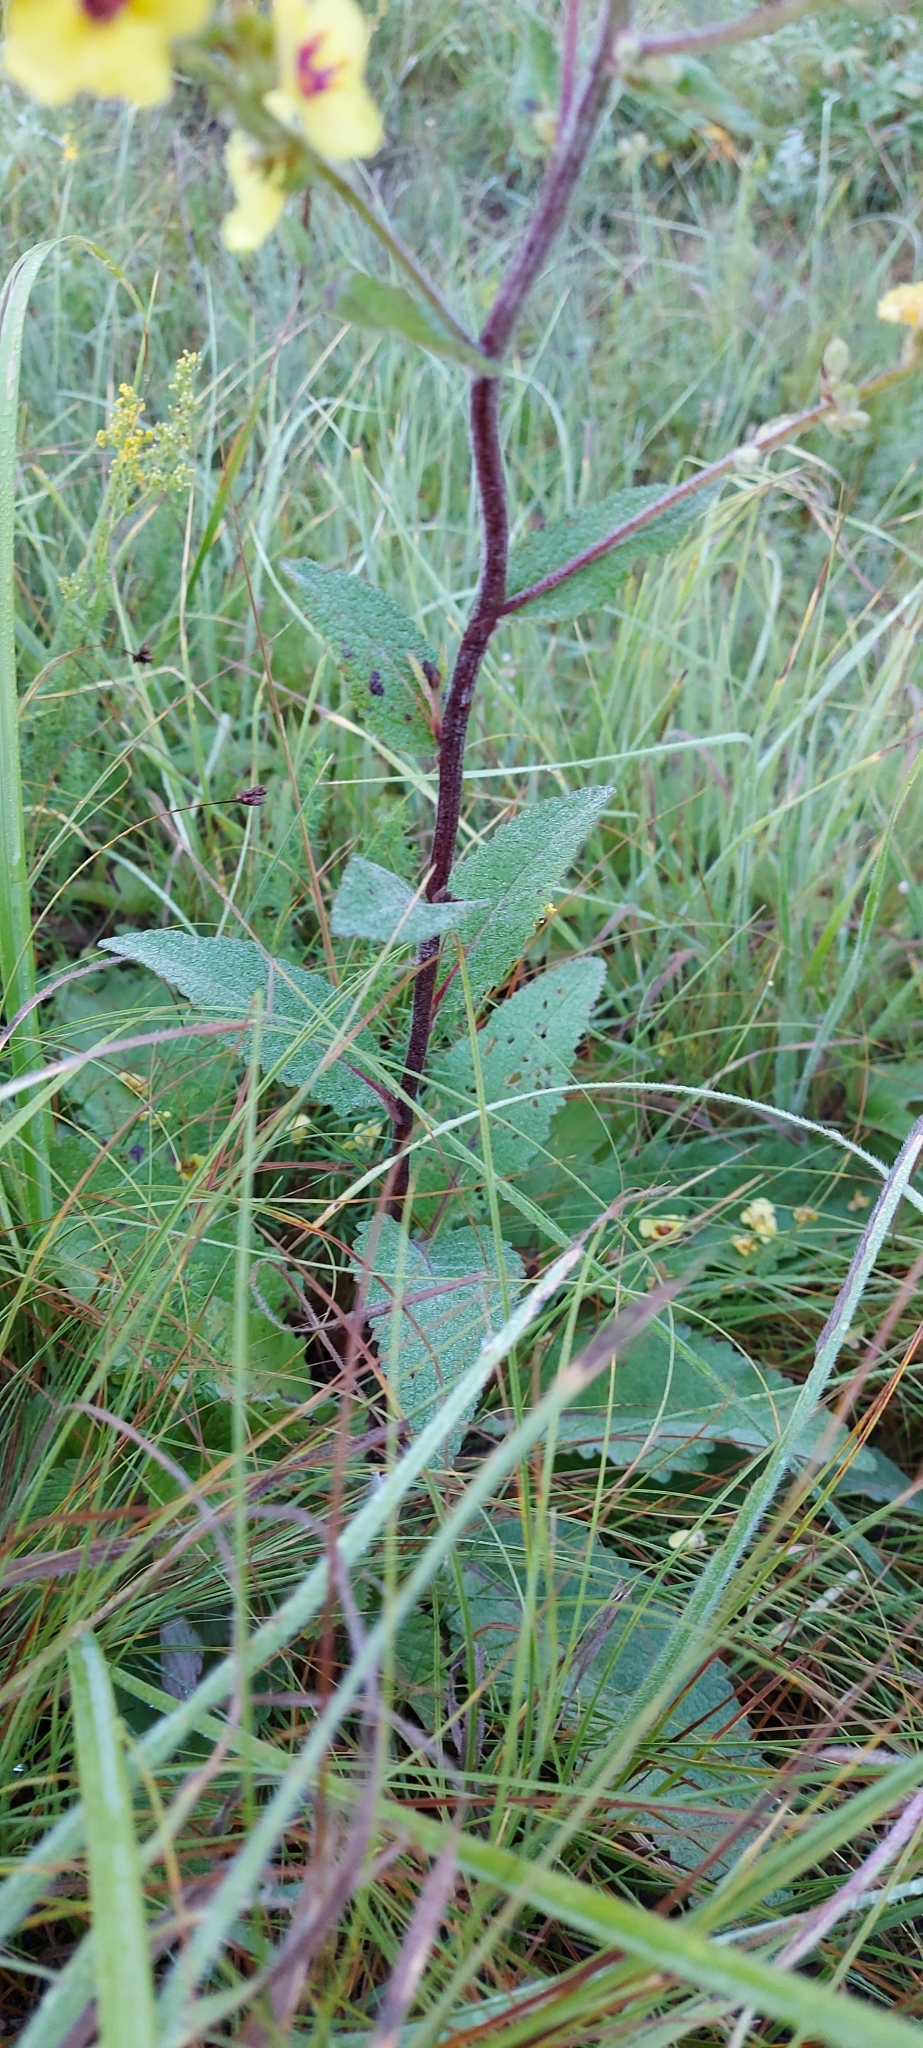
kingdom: Plantae
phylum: Tracheophyta
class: Magnoliopsida
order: Lamiales
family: Scrophulariaceae
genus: Verbascum
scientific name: Verbascum nigrum
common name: Dark mullein
